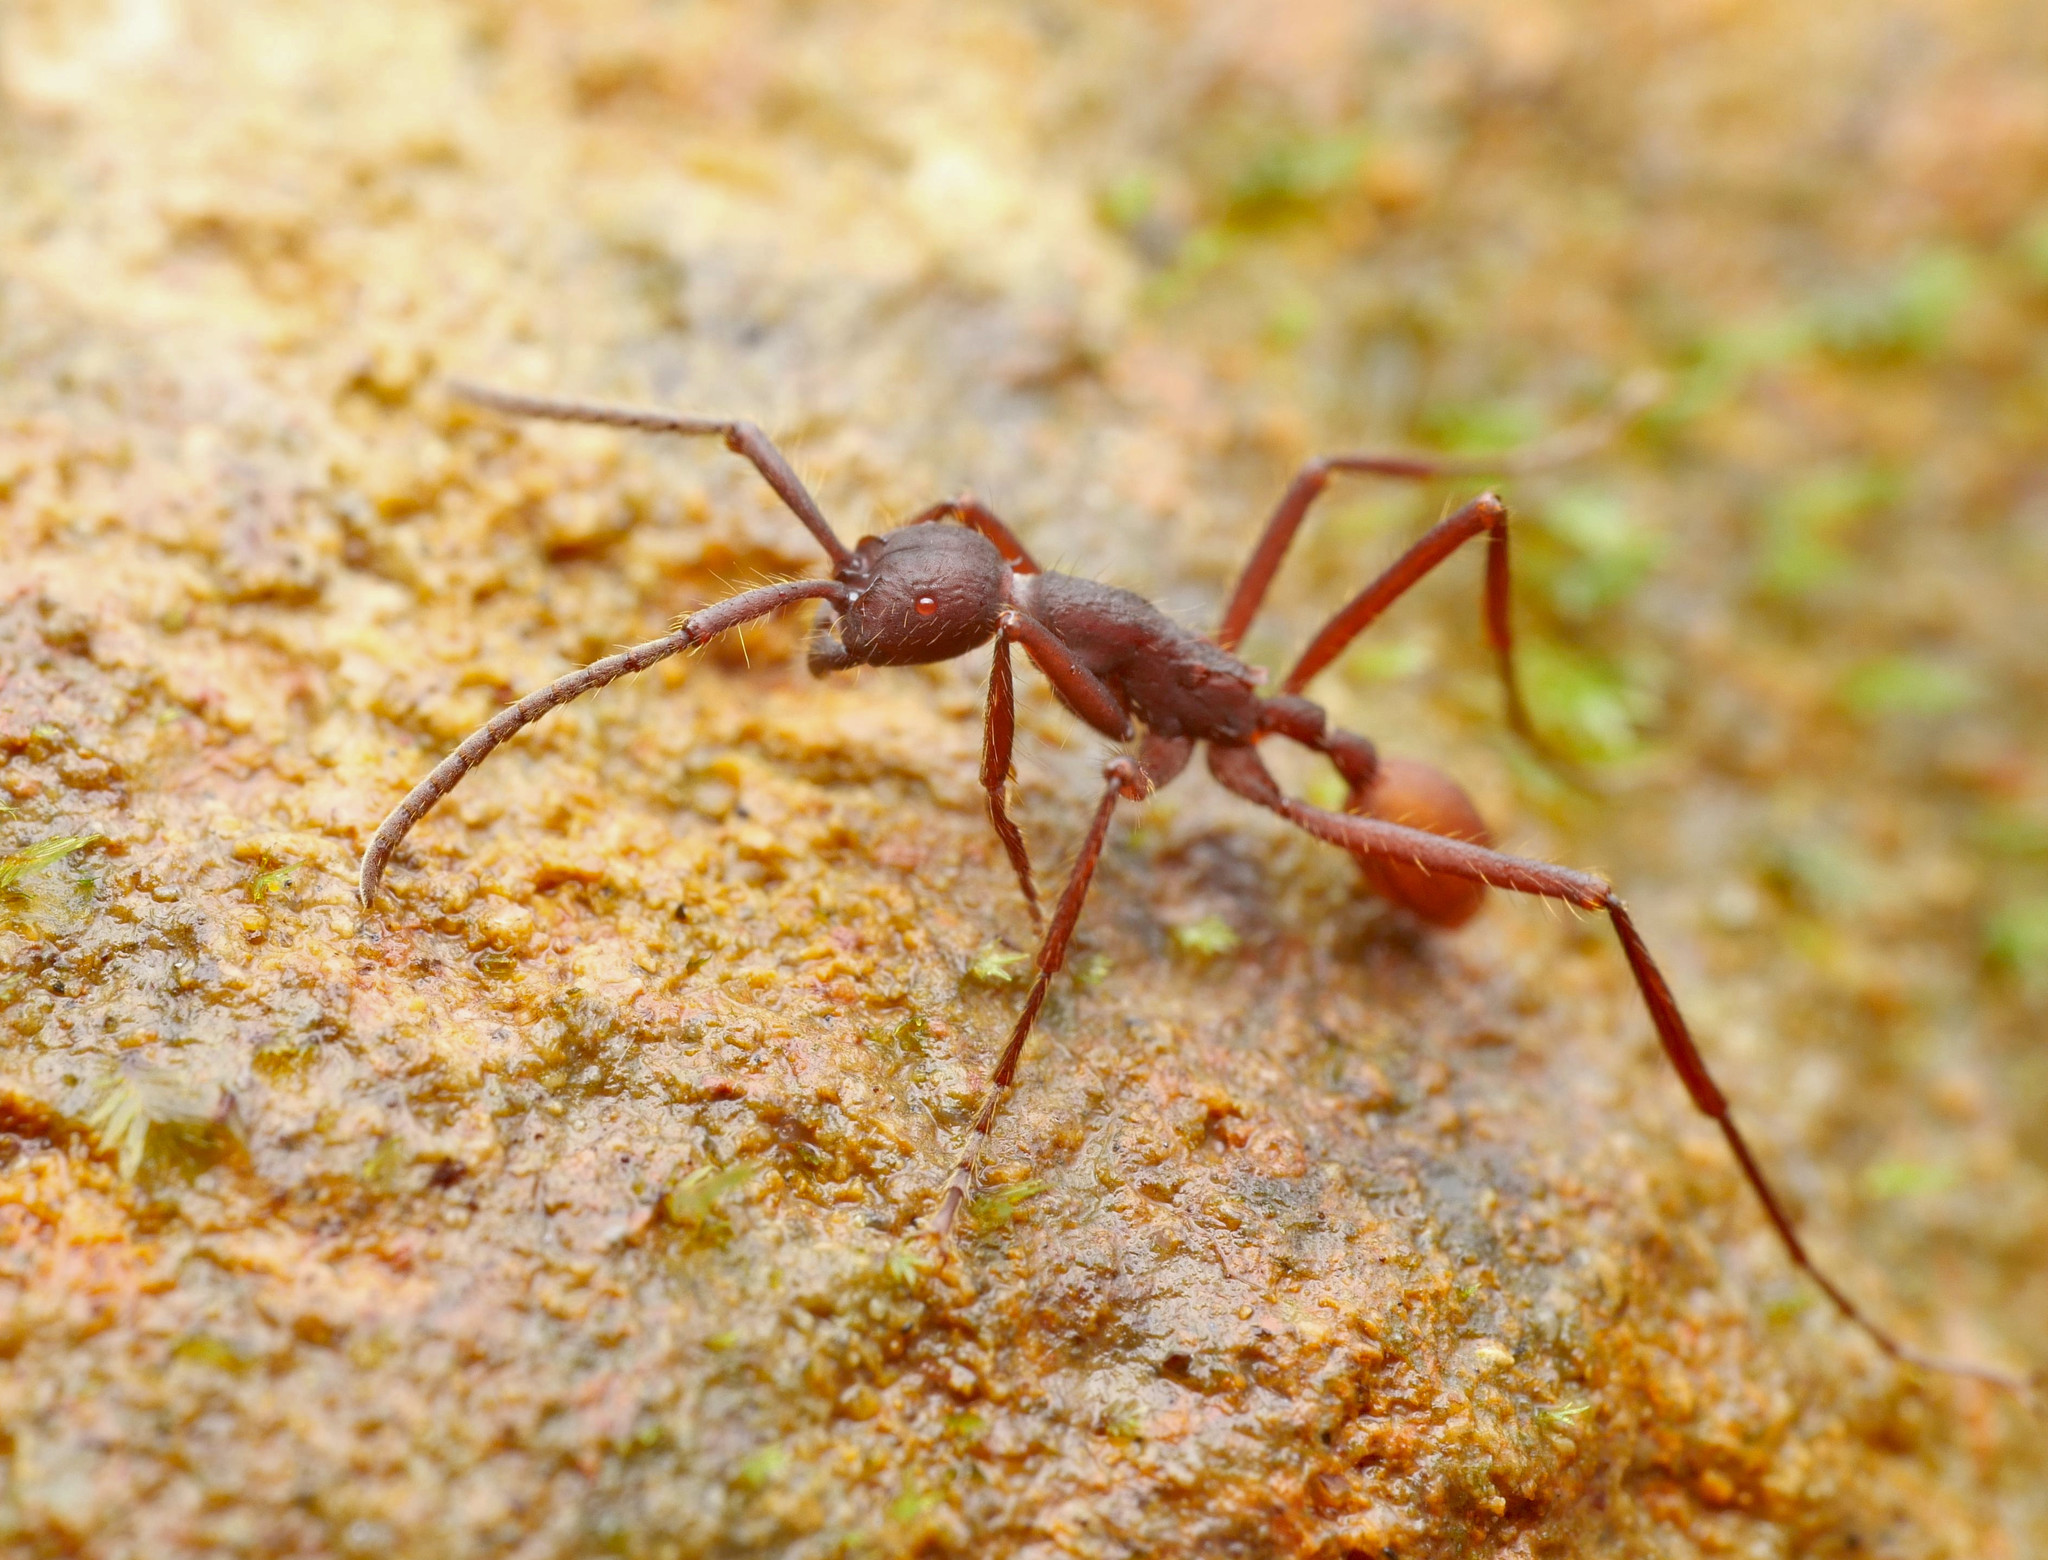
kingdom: Animalia
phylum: Arthropoda
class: Insecta
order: Hymenoptera
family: Formicidae
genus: Eciton
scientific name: Eciton mexicanum
